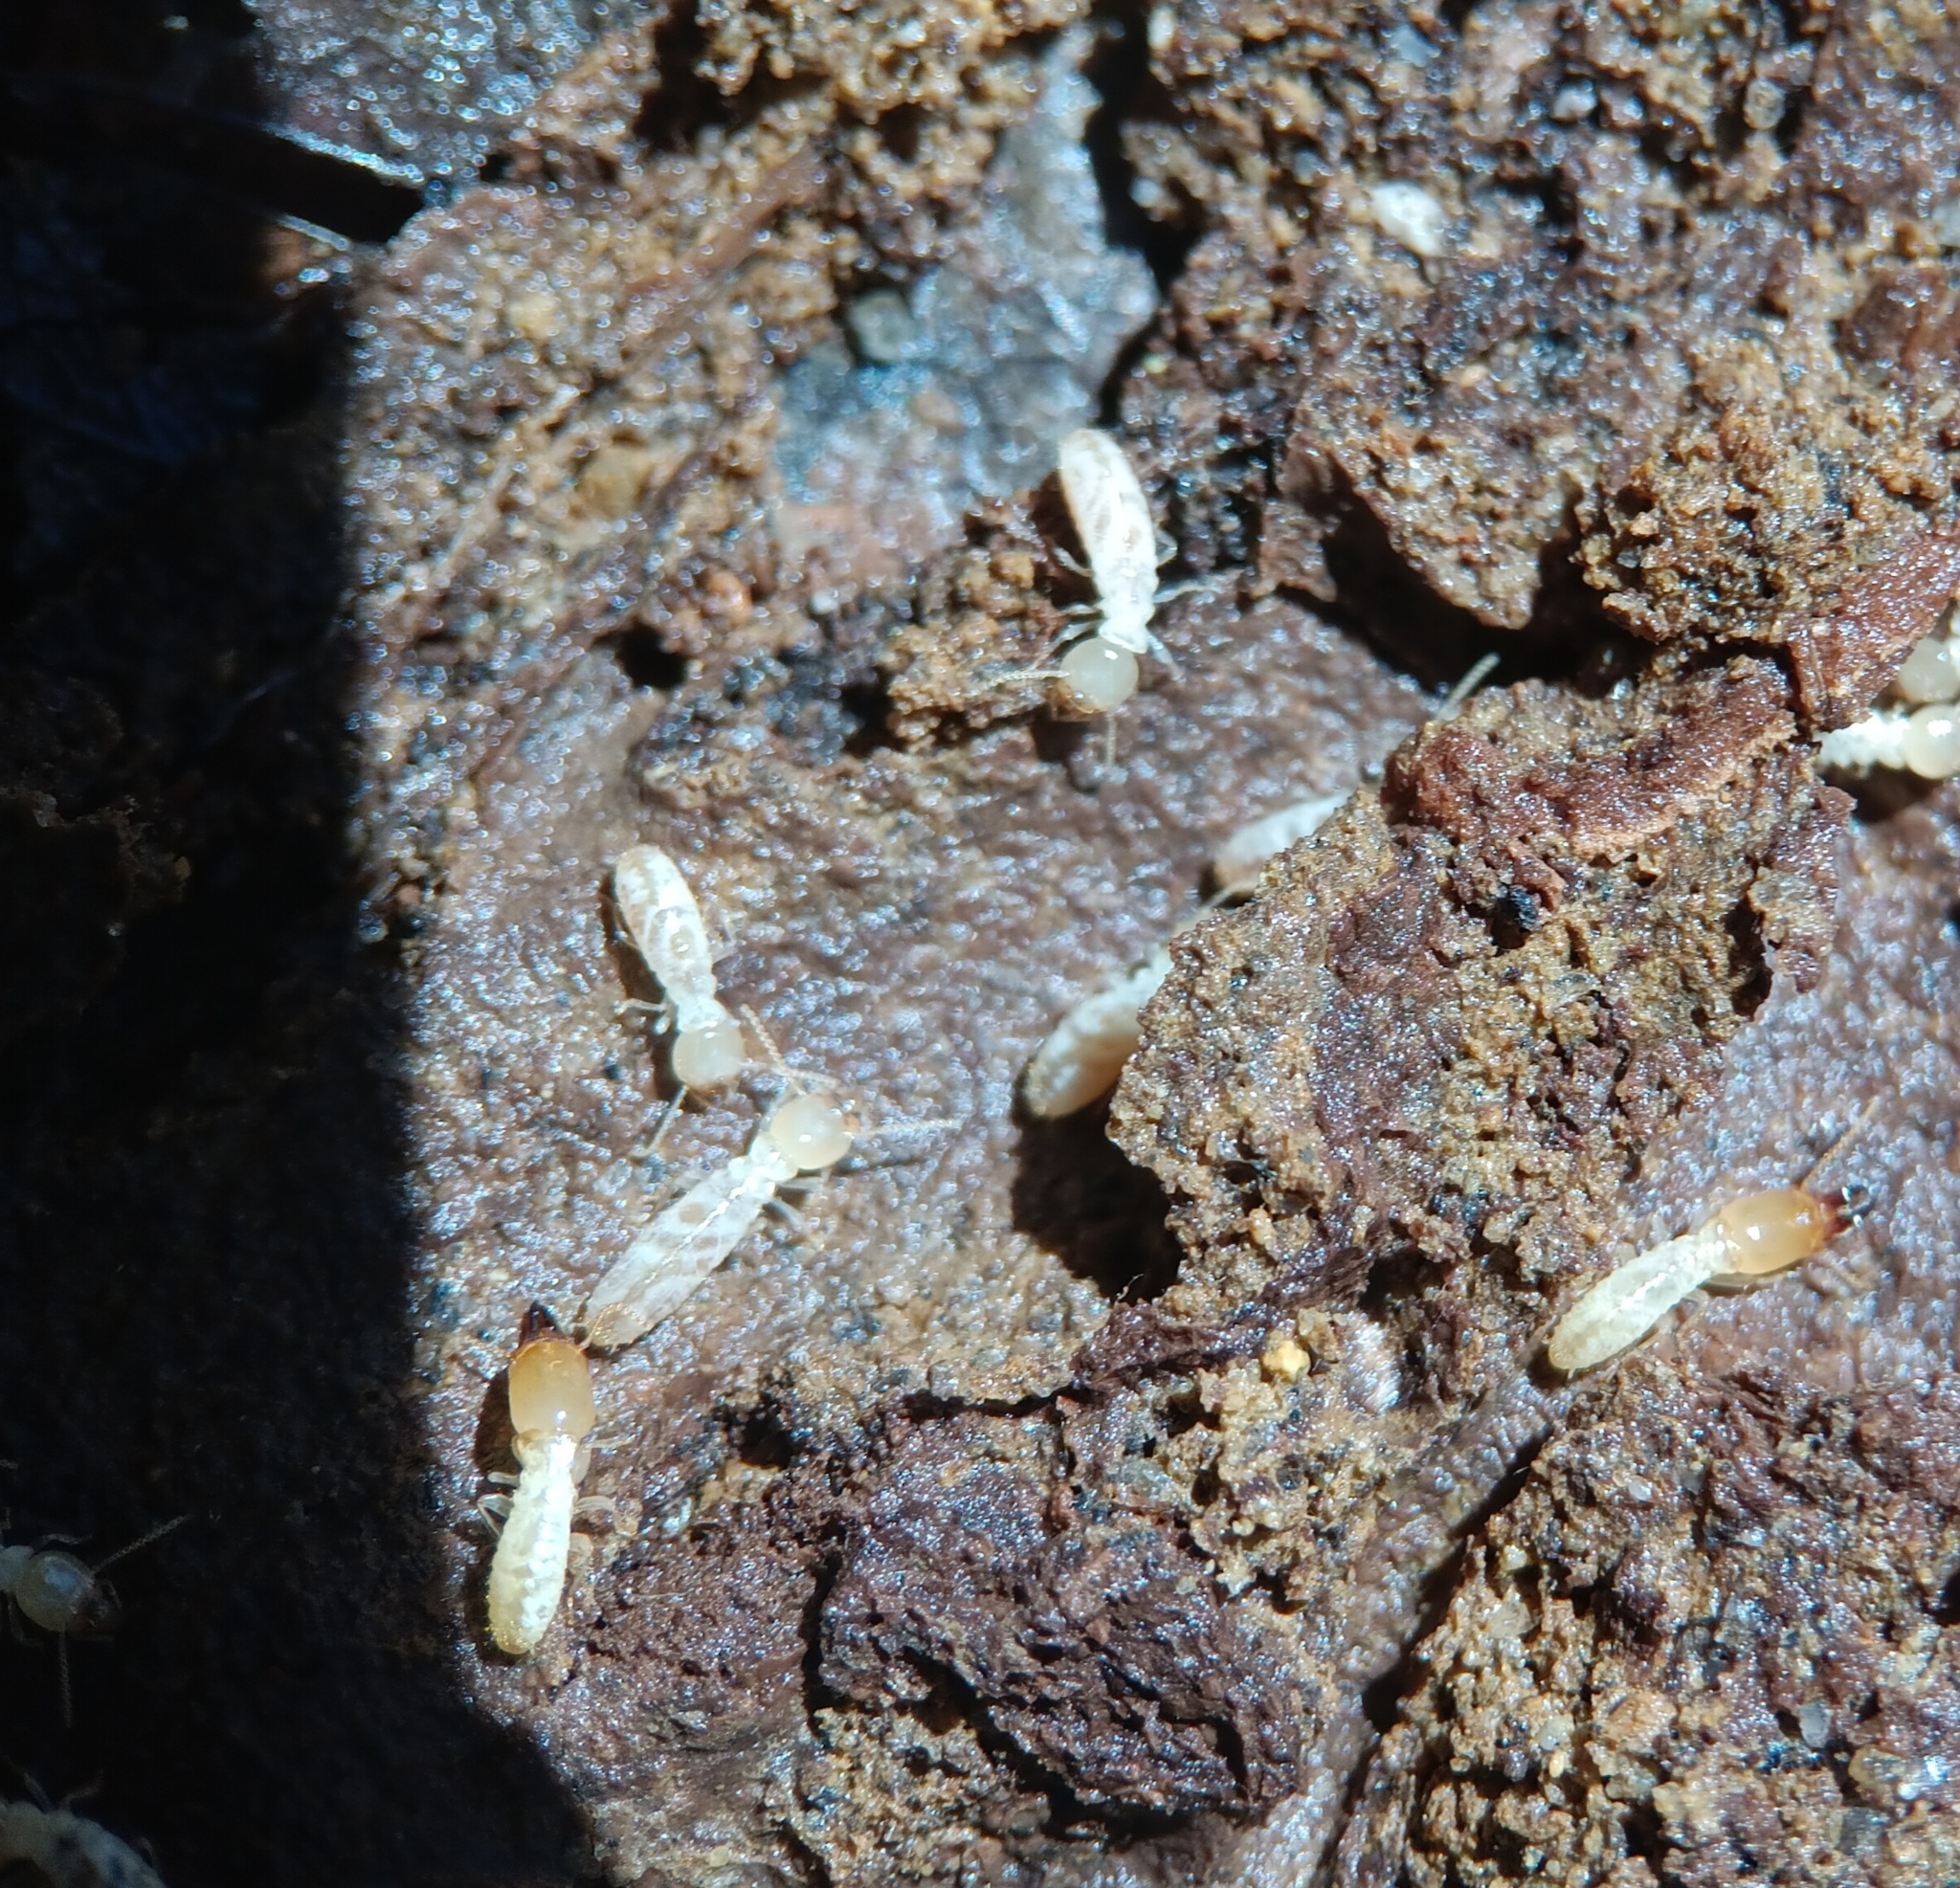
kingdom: Animalia
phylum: Arthropoda
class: Insecta
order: Blattodea
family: Rhinotermitidae
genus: Reticulitermes
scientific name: Reticulitermes flavipes
